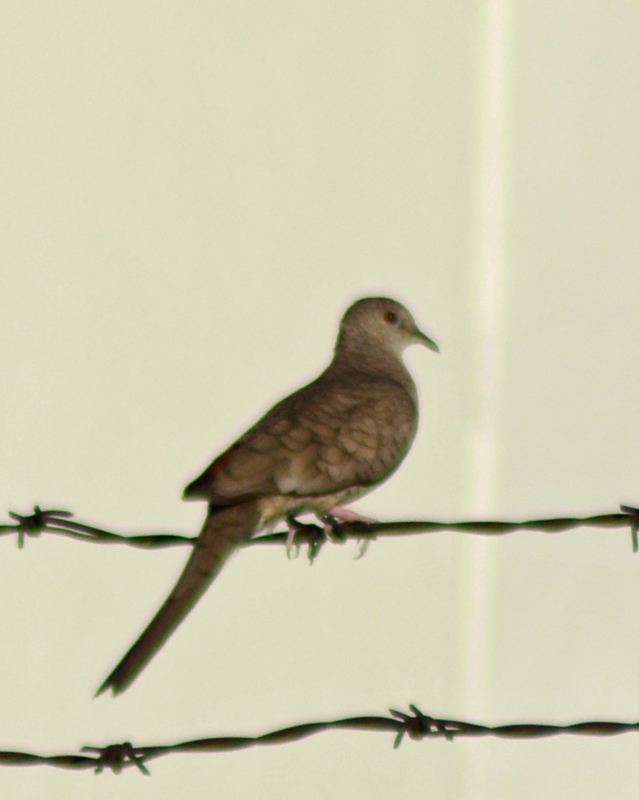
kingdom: Animalia
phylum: Chordata
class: Aves
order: Columbiformes
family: Columbidae
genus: Columbina
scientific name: Columbina inca
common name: Inca dove
